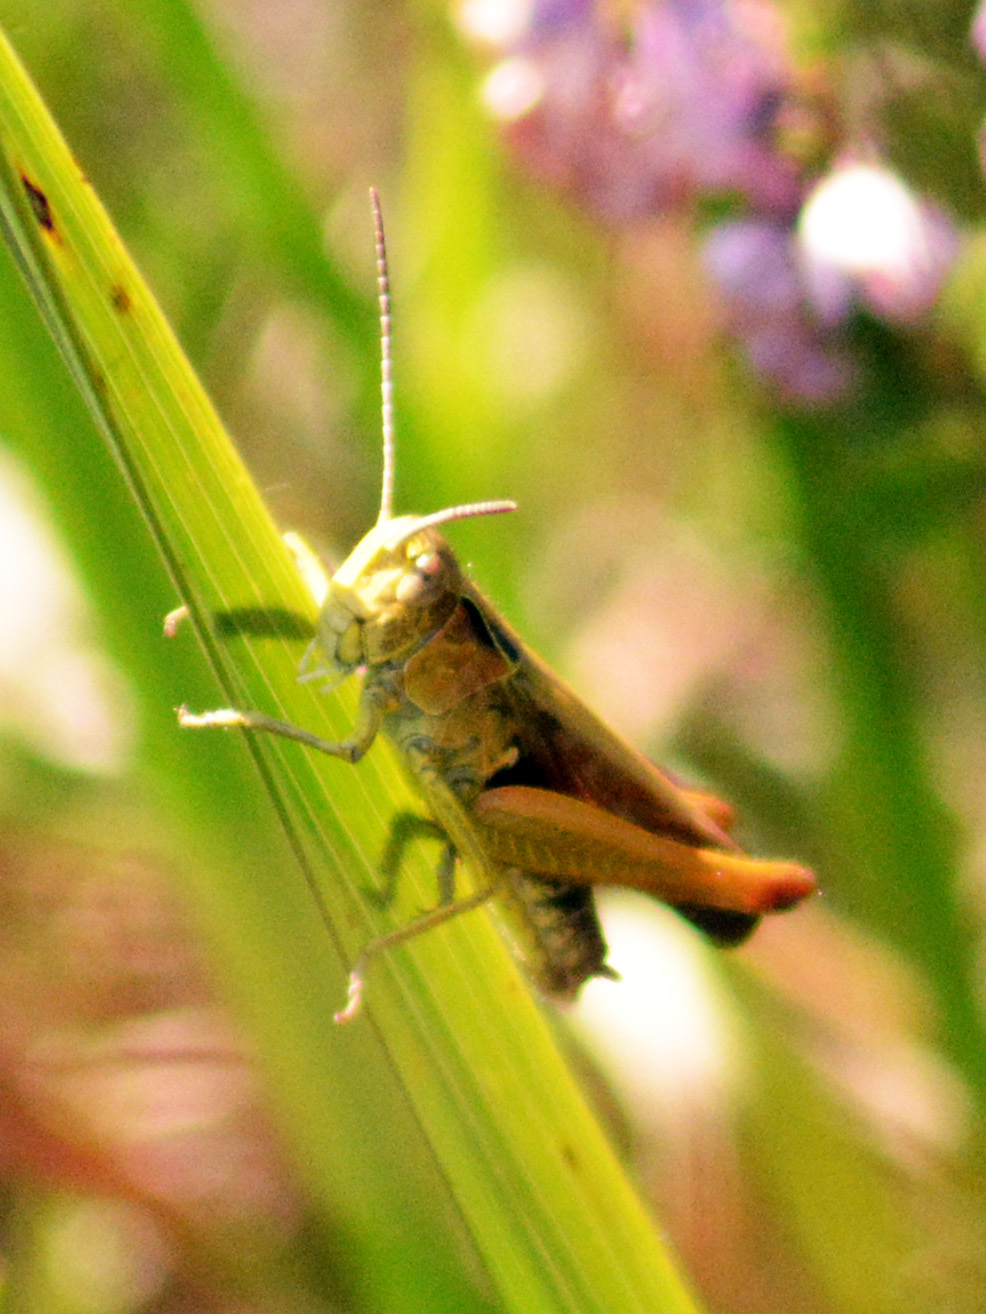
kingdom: Animalia
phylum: Arthropoda
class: Insecta
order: Orthoptera
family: Acrididae
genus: Omocestus
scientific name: Omocestus viridulus
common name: Common green grasshopper
